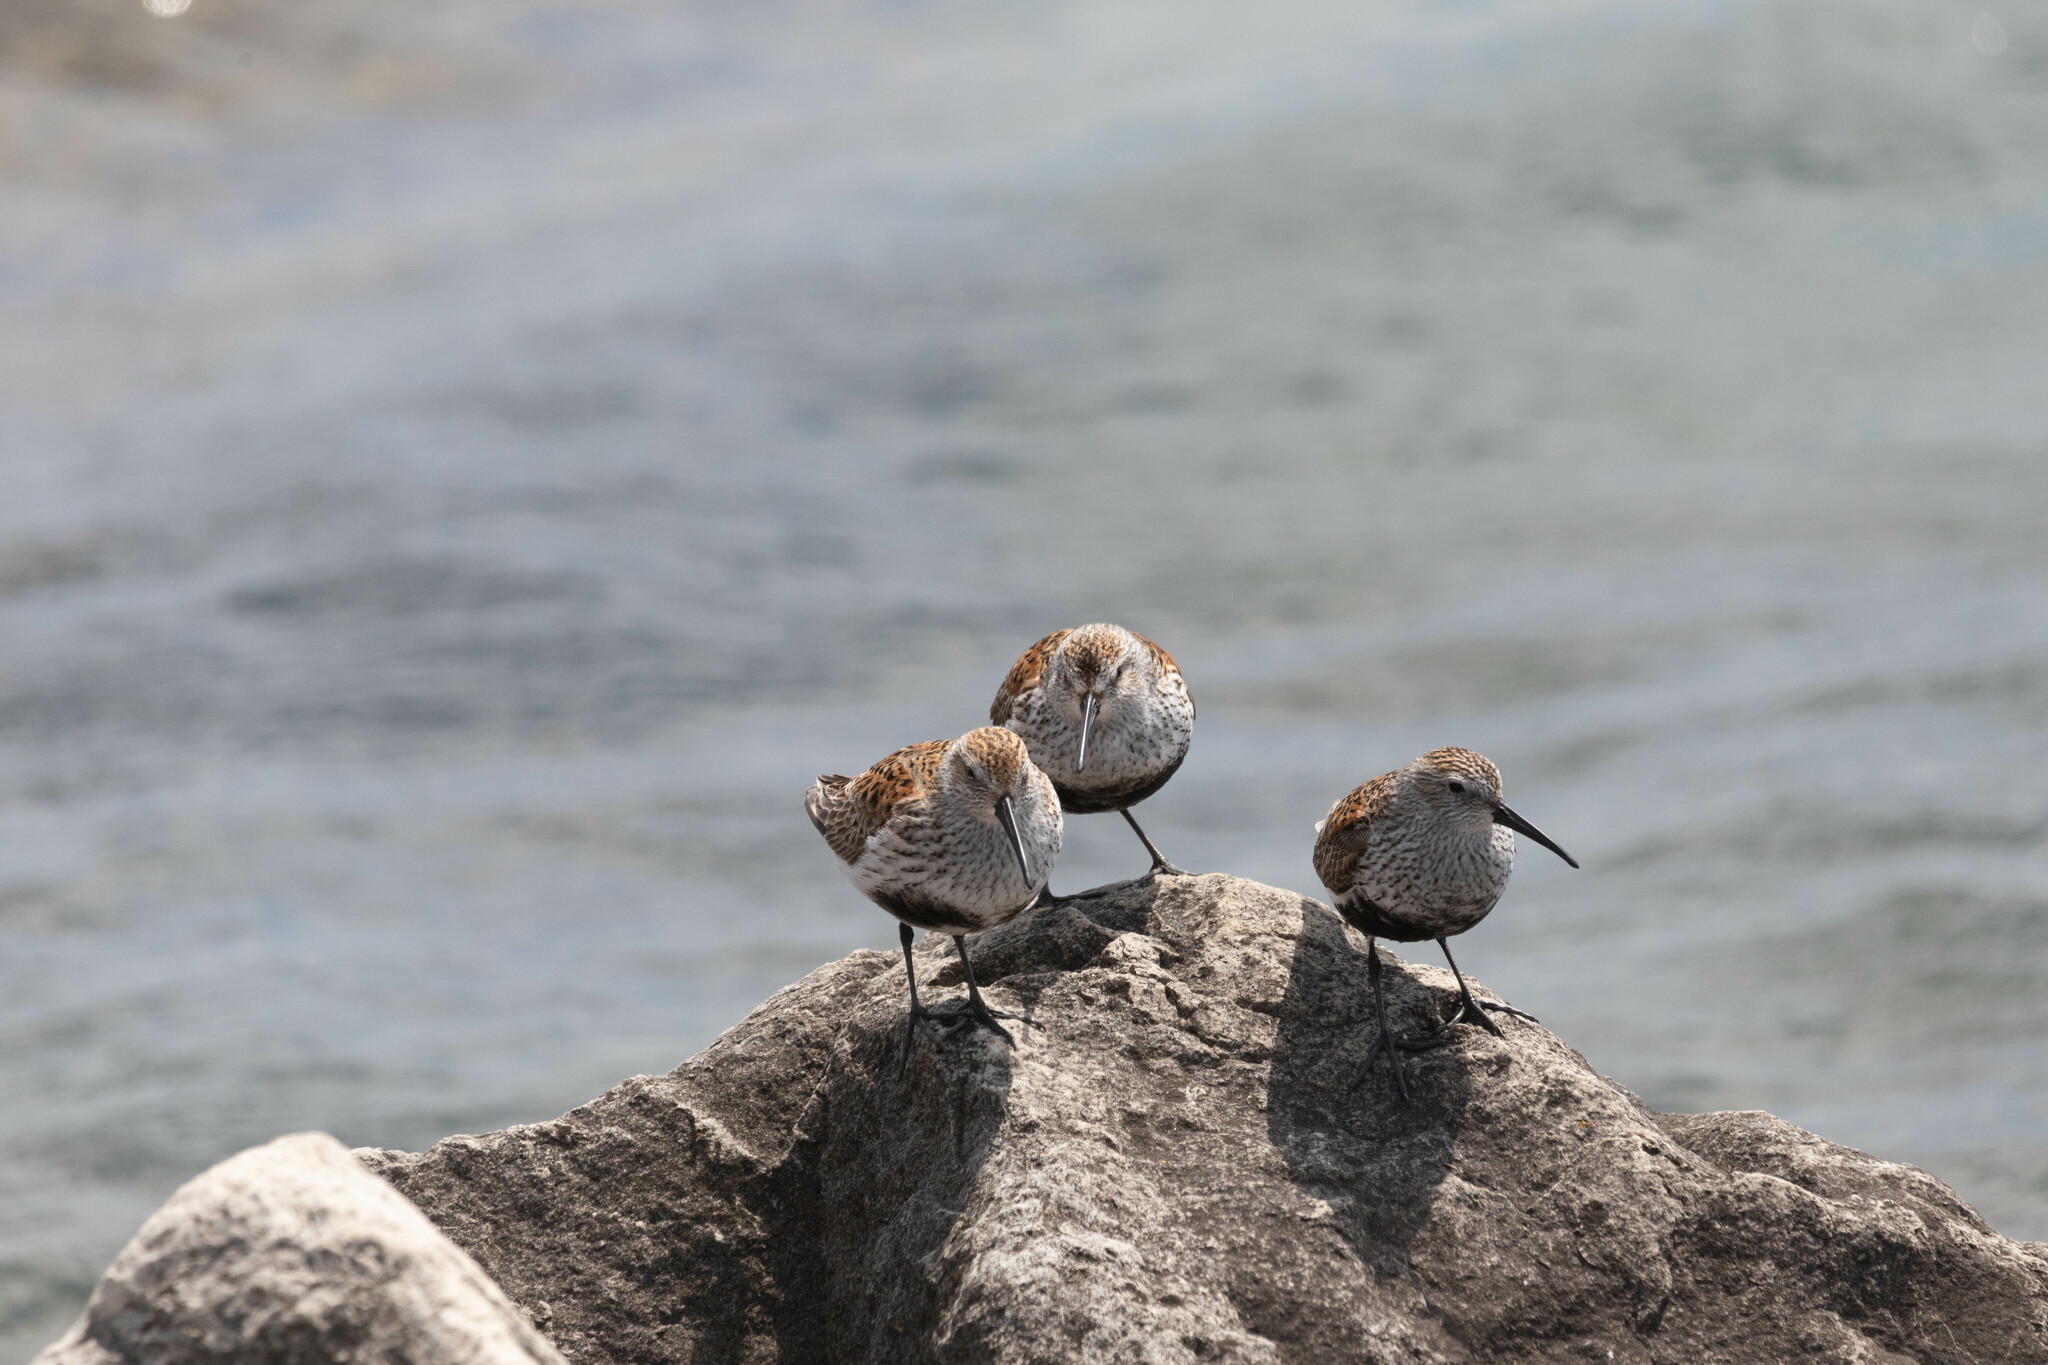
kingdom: Animalia
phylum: Chordata
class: Aves
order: Charadriiformes
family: Scolopacidae
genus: Calidris
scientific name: Calidris alpina
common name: Dunlin
